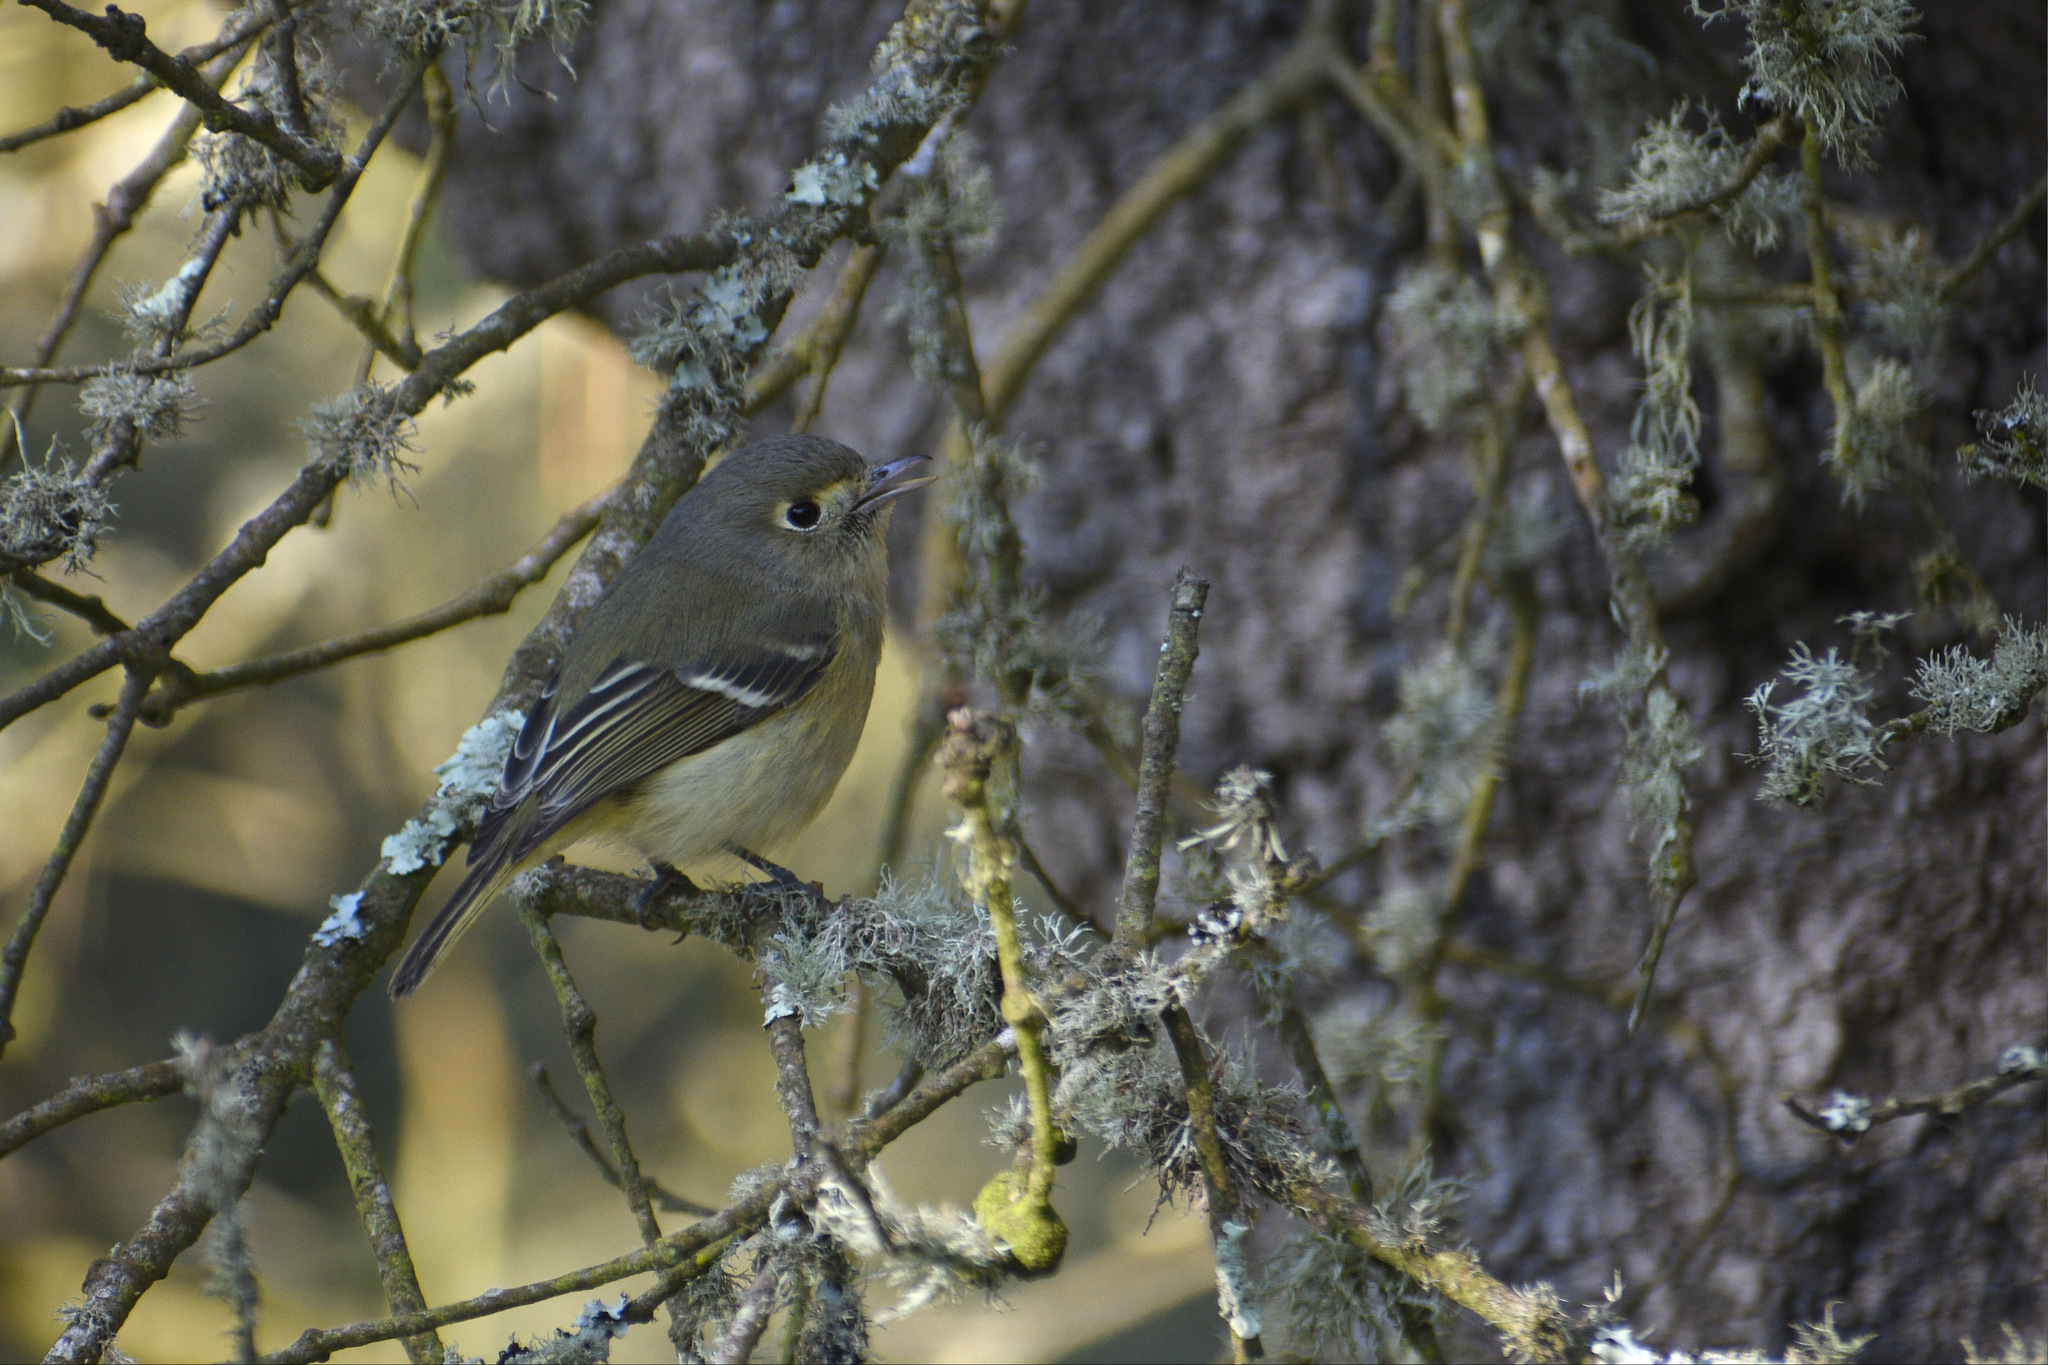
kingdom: Animalia
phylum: Chordata
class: Aves
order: Passeriformes
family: Vireonidae
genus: Vireo
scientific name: Vireo huttoni
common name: Hutton's vireo
